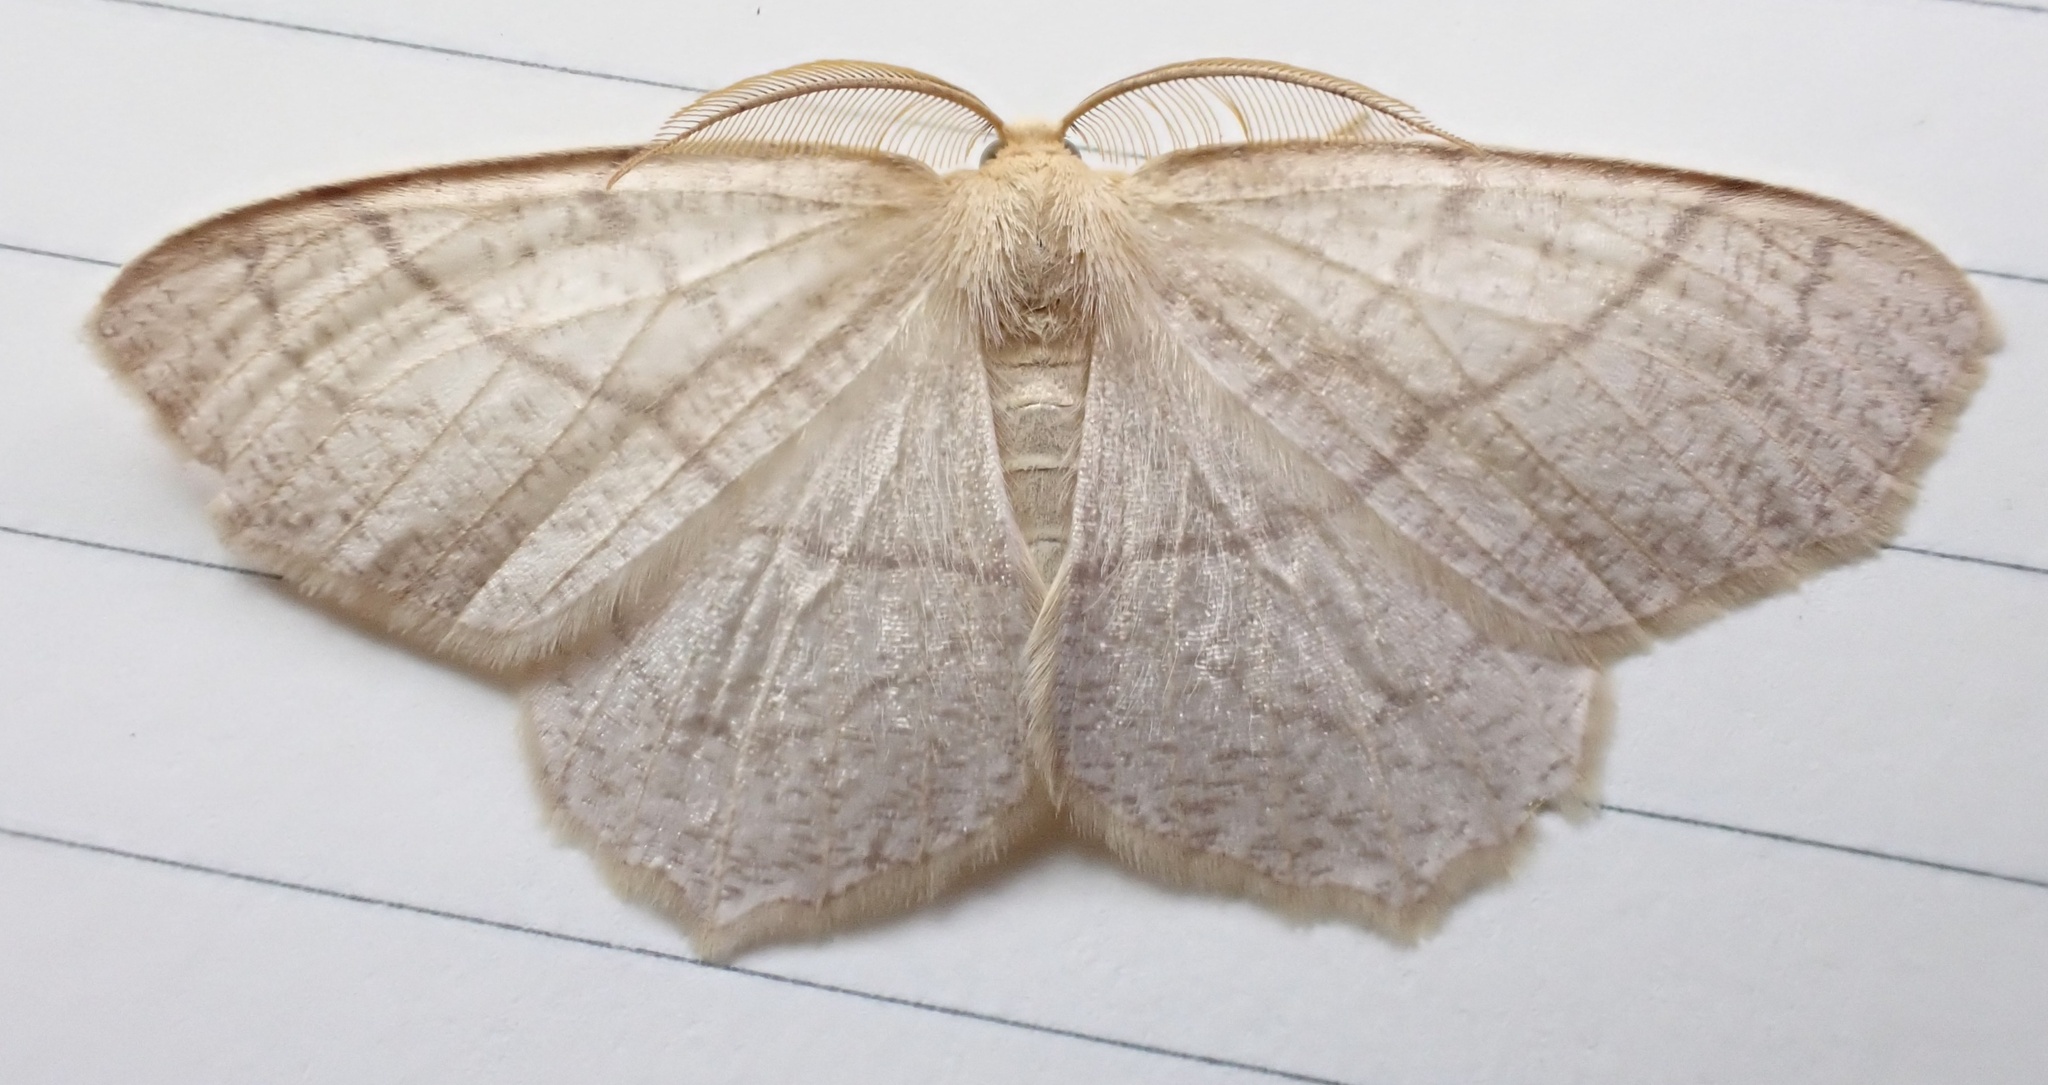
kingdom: Animalia
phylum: Arthropoda
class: Insecta
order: Lepidoptera
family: Geometridae
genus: Besma
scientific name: Besma endropiaria
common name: Straw besma
